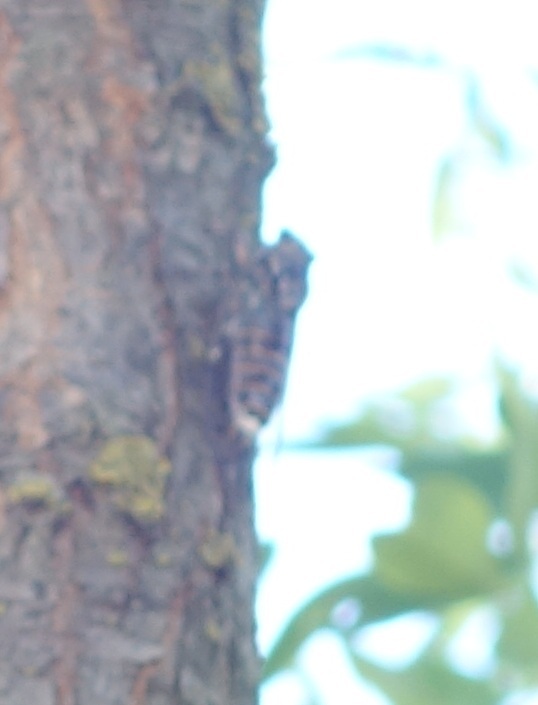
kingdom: Animalia
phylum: Arthropoda
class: Insecta
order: Hemiptera
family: Cicadidae
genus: Cicada
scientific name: Cicada orni
